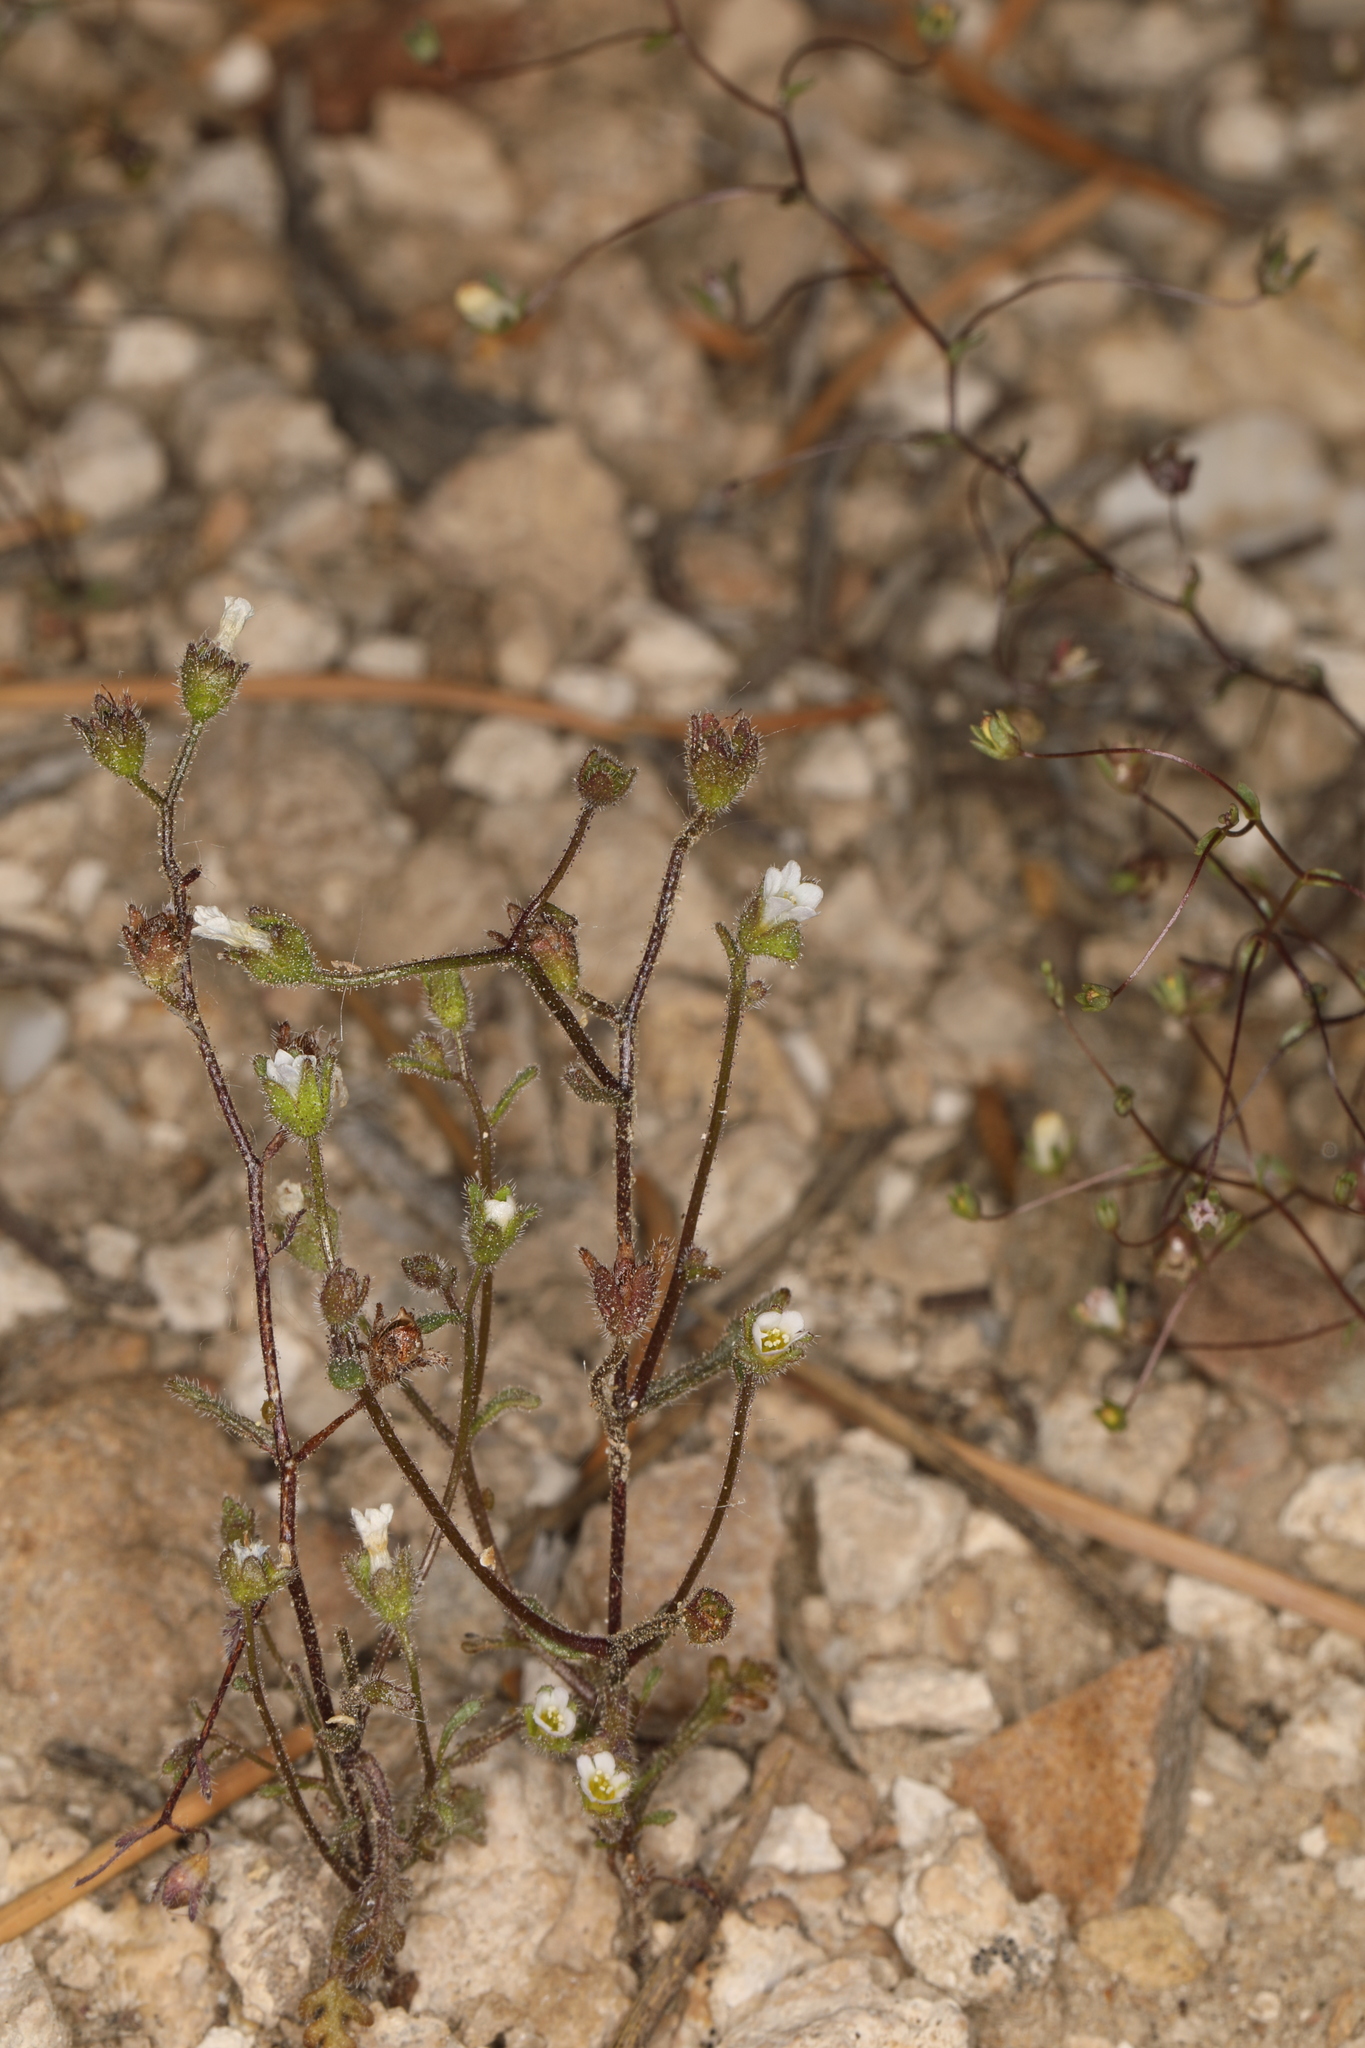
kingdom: Plantae
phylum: Tracheophyta
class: Magnoliopsida
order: Boraginales
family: Hydrophyllaceae
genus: Eucrypta
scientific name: Eucrypta micrantha
